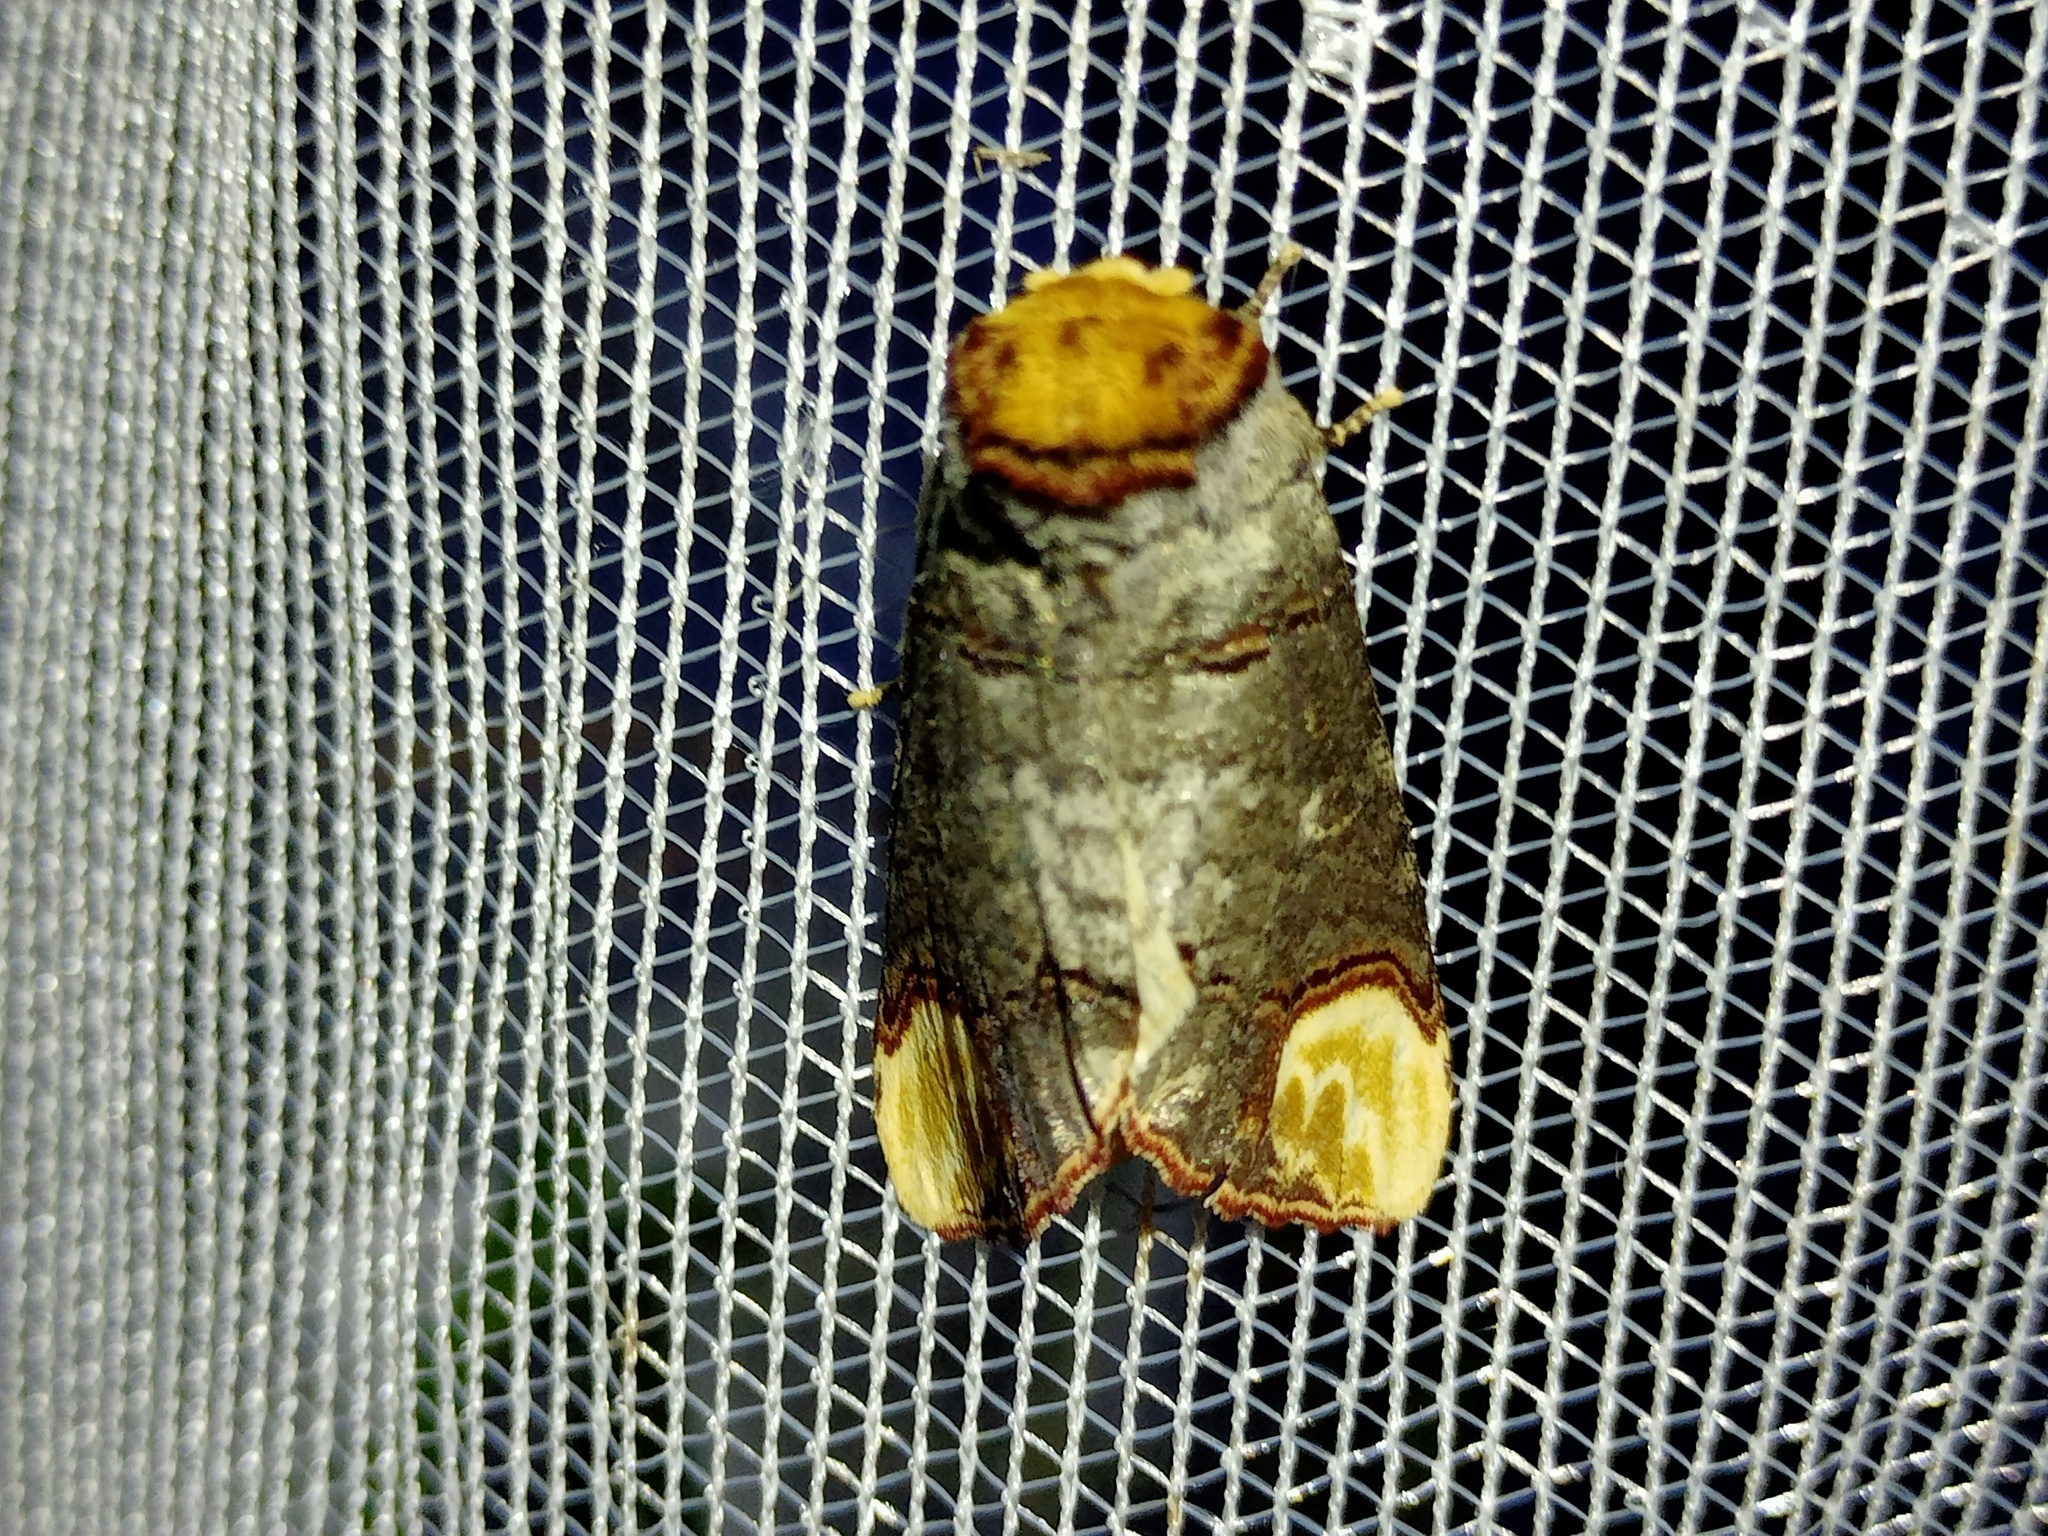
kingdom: Animalia
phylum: Arthropoda
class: Insecta
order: Lepidoptera
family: Notodontidae
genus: Phalera
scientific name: Phalera bucephala
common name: Buff-tip
